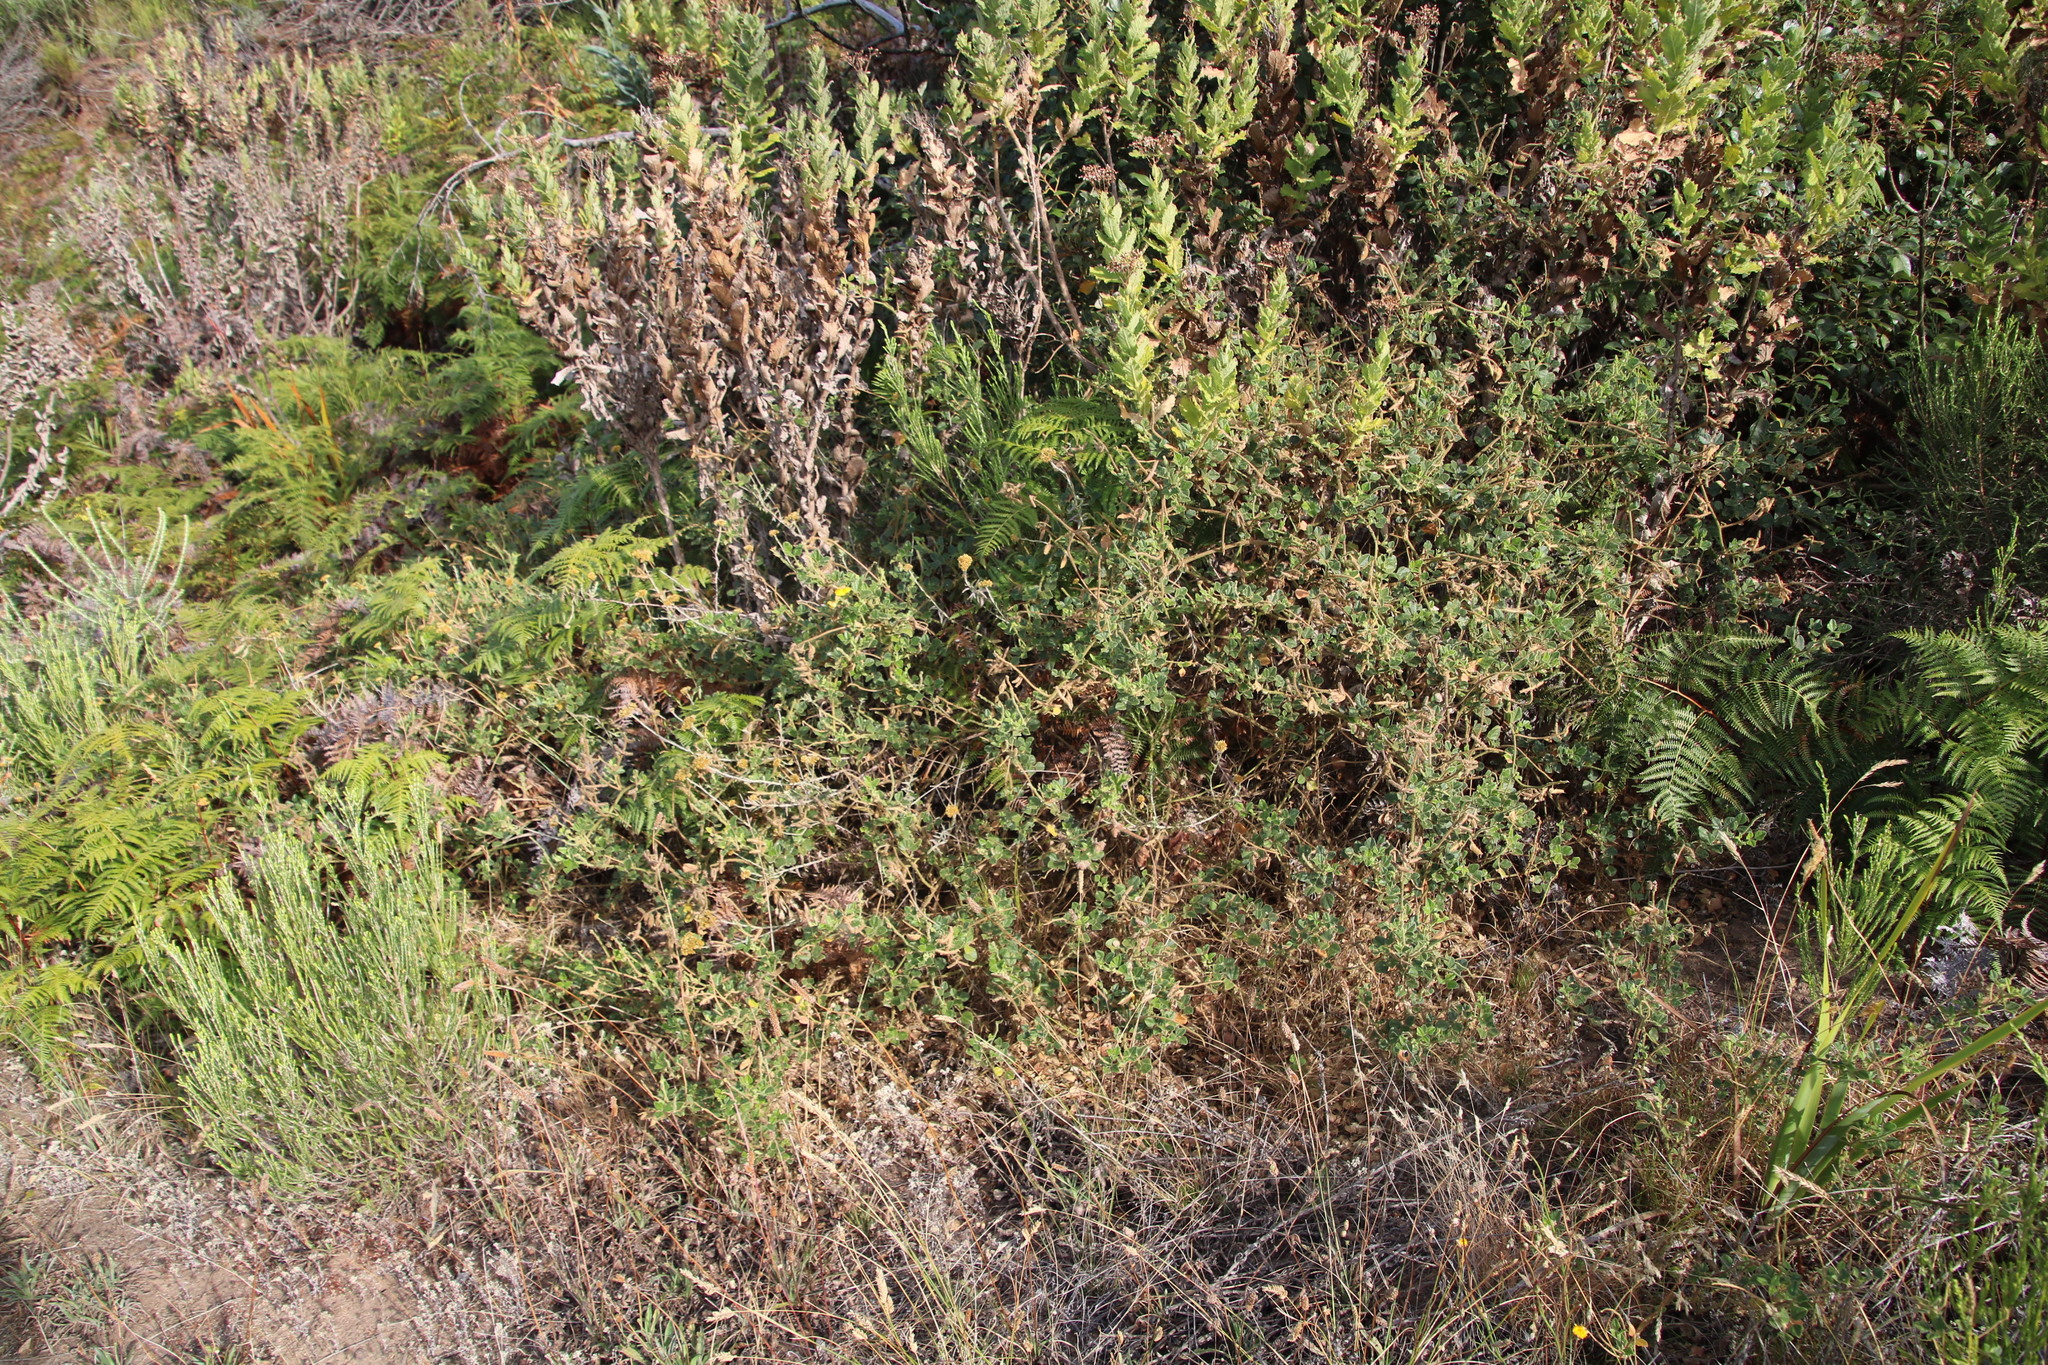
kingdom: Plantae
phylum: Tracheophyta
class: Magnoliopsida
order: Fabales
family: Fabaceae
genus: Bolusafra
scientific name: Bolusafra bituminosa
